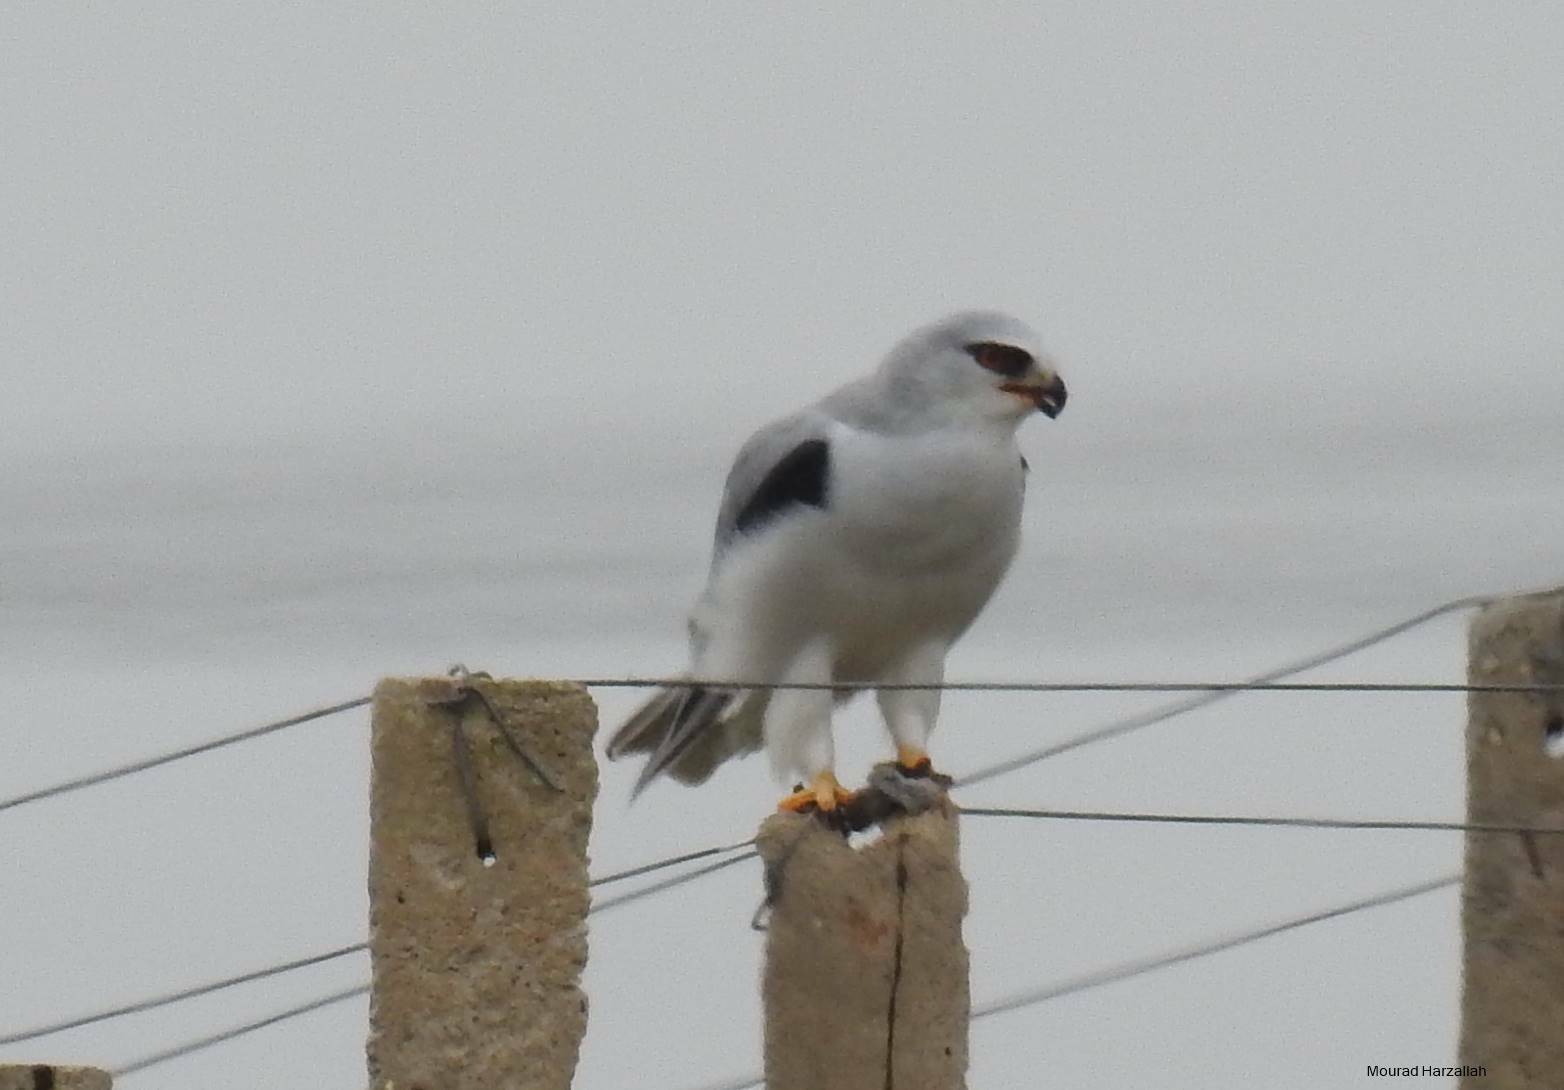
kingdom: Animalia
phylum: Chordata
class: Aves
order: Accipitriformes
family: Accipitridae
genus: Elanus
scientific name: Elanus caeruleus
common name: Black-winged kite
